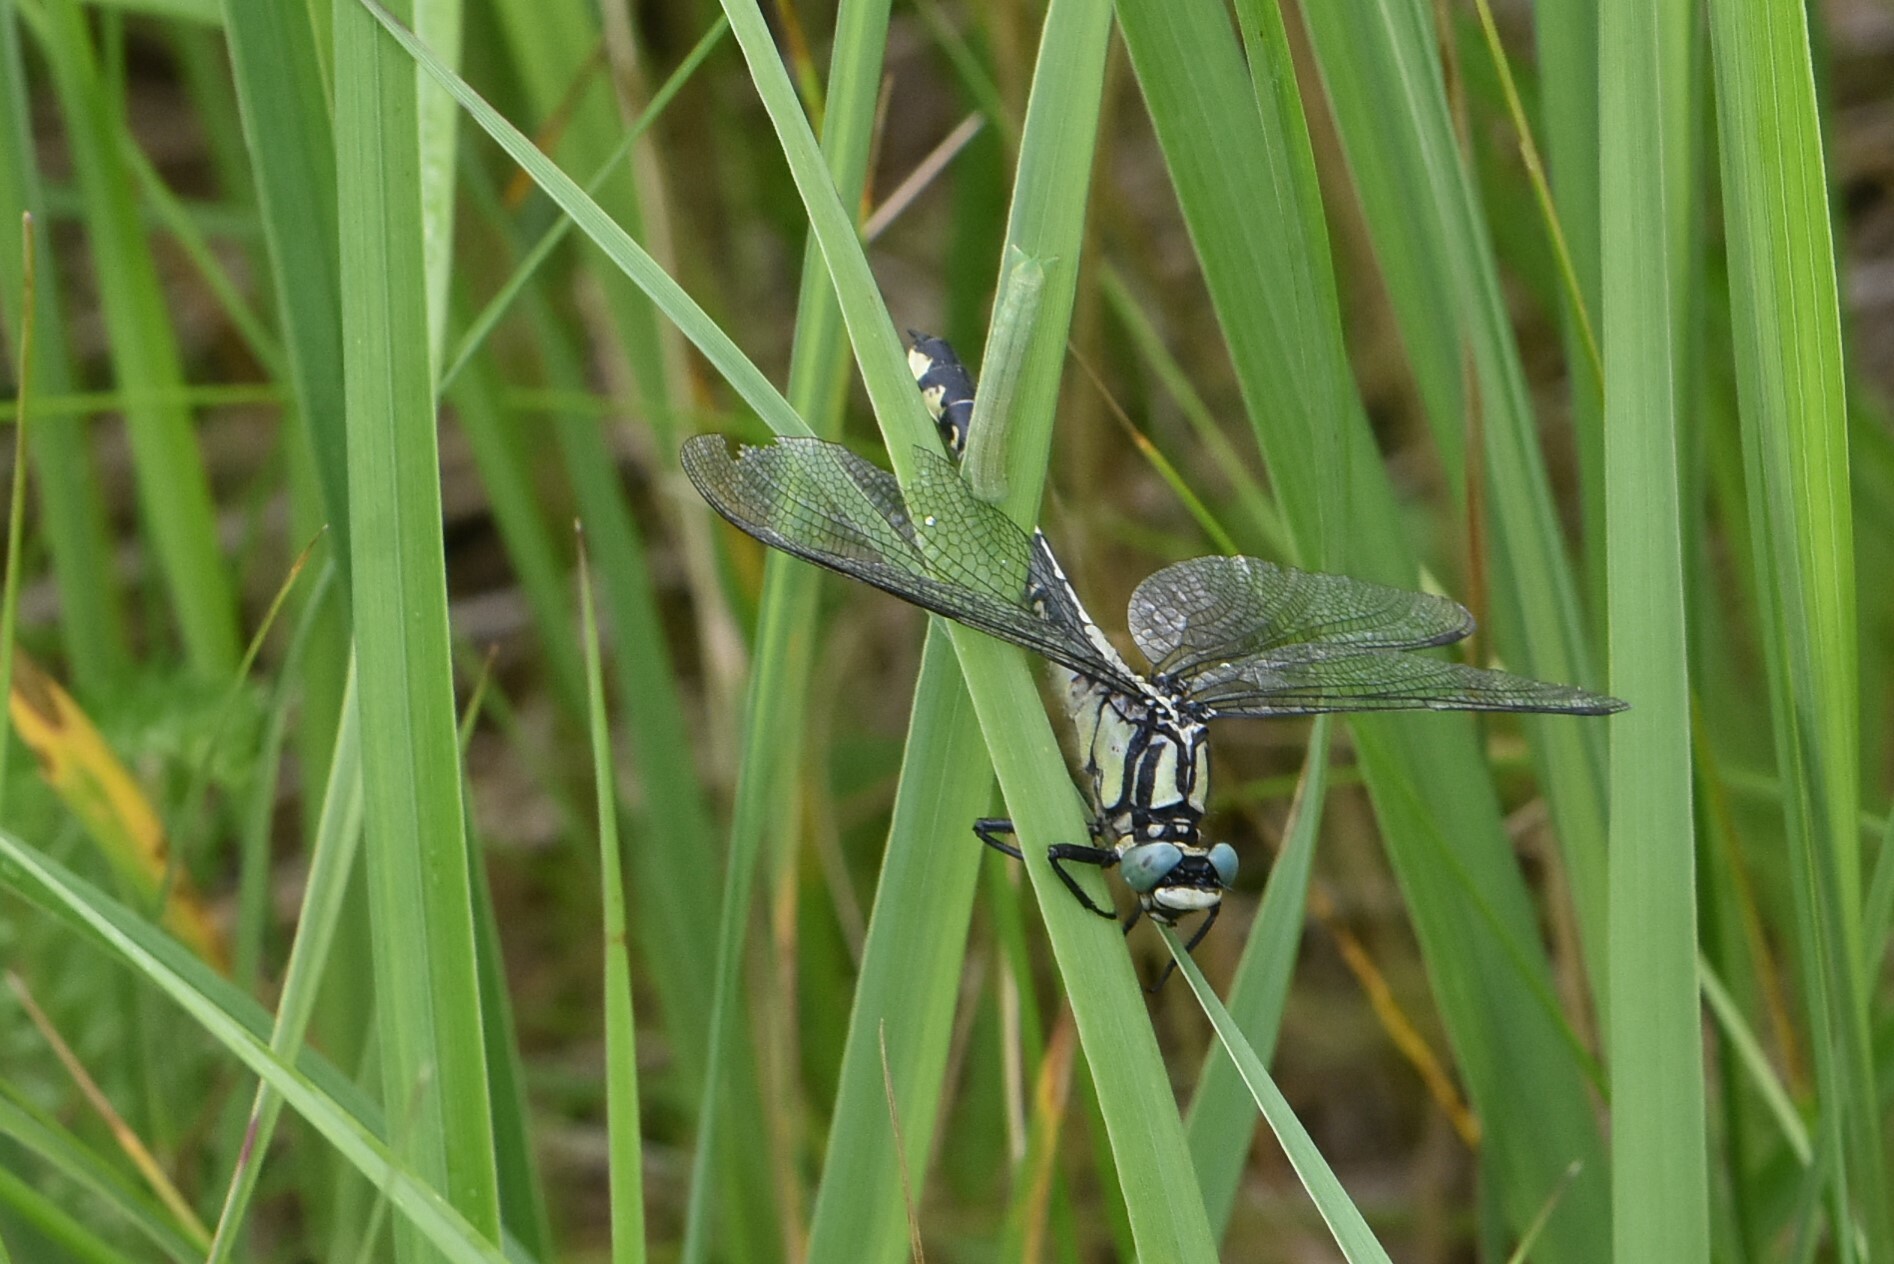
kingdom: Animalia
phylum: Arthropoda
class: Insecta
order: Odonata
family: Gomphidae
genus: Gomphus
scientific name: Gomphus vulgatissimus
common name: Club-tailed dragonfly
